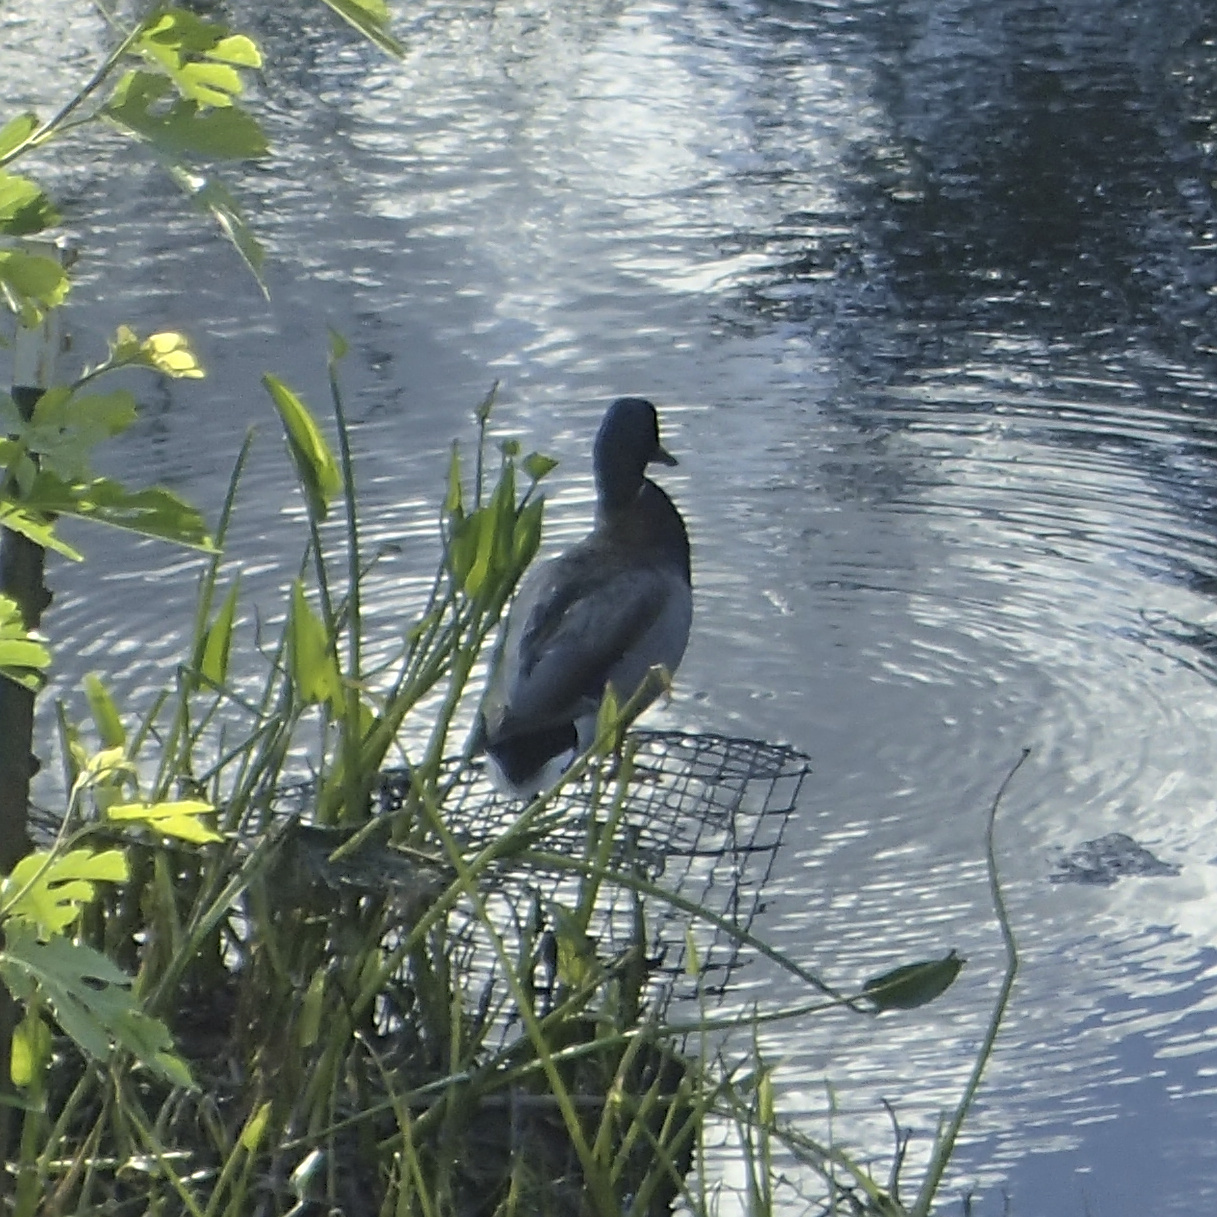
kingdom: Animalia
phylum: Chordata
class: Aves
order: Anseriformes
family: Anatidae
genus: Anas
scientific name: Anas platyrhynchos
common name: Mallard
